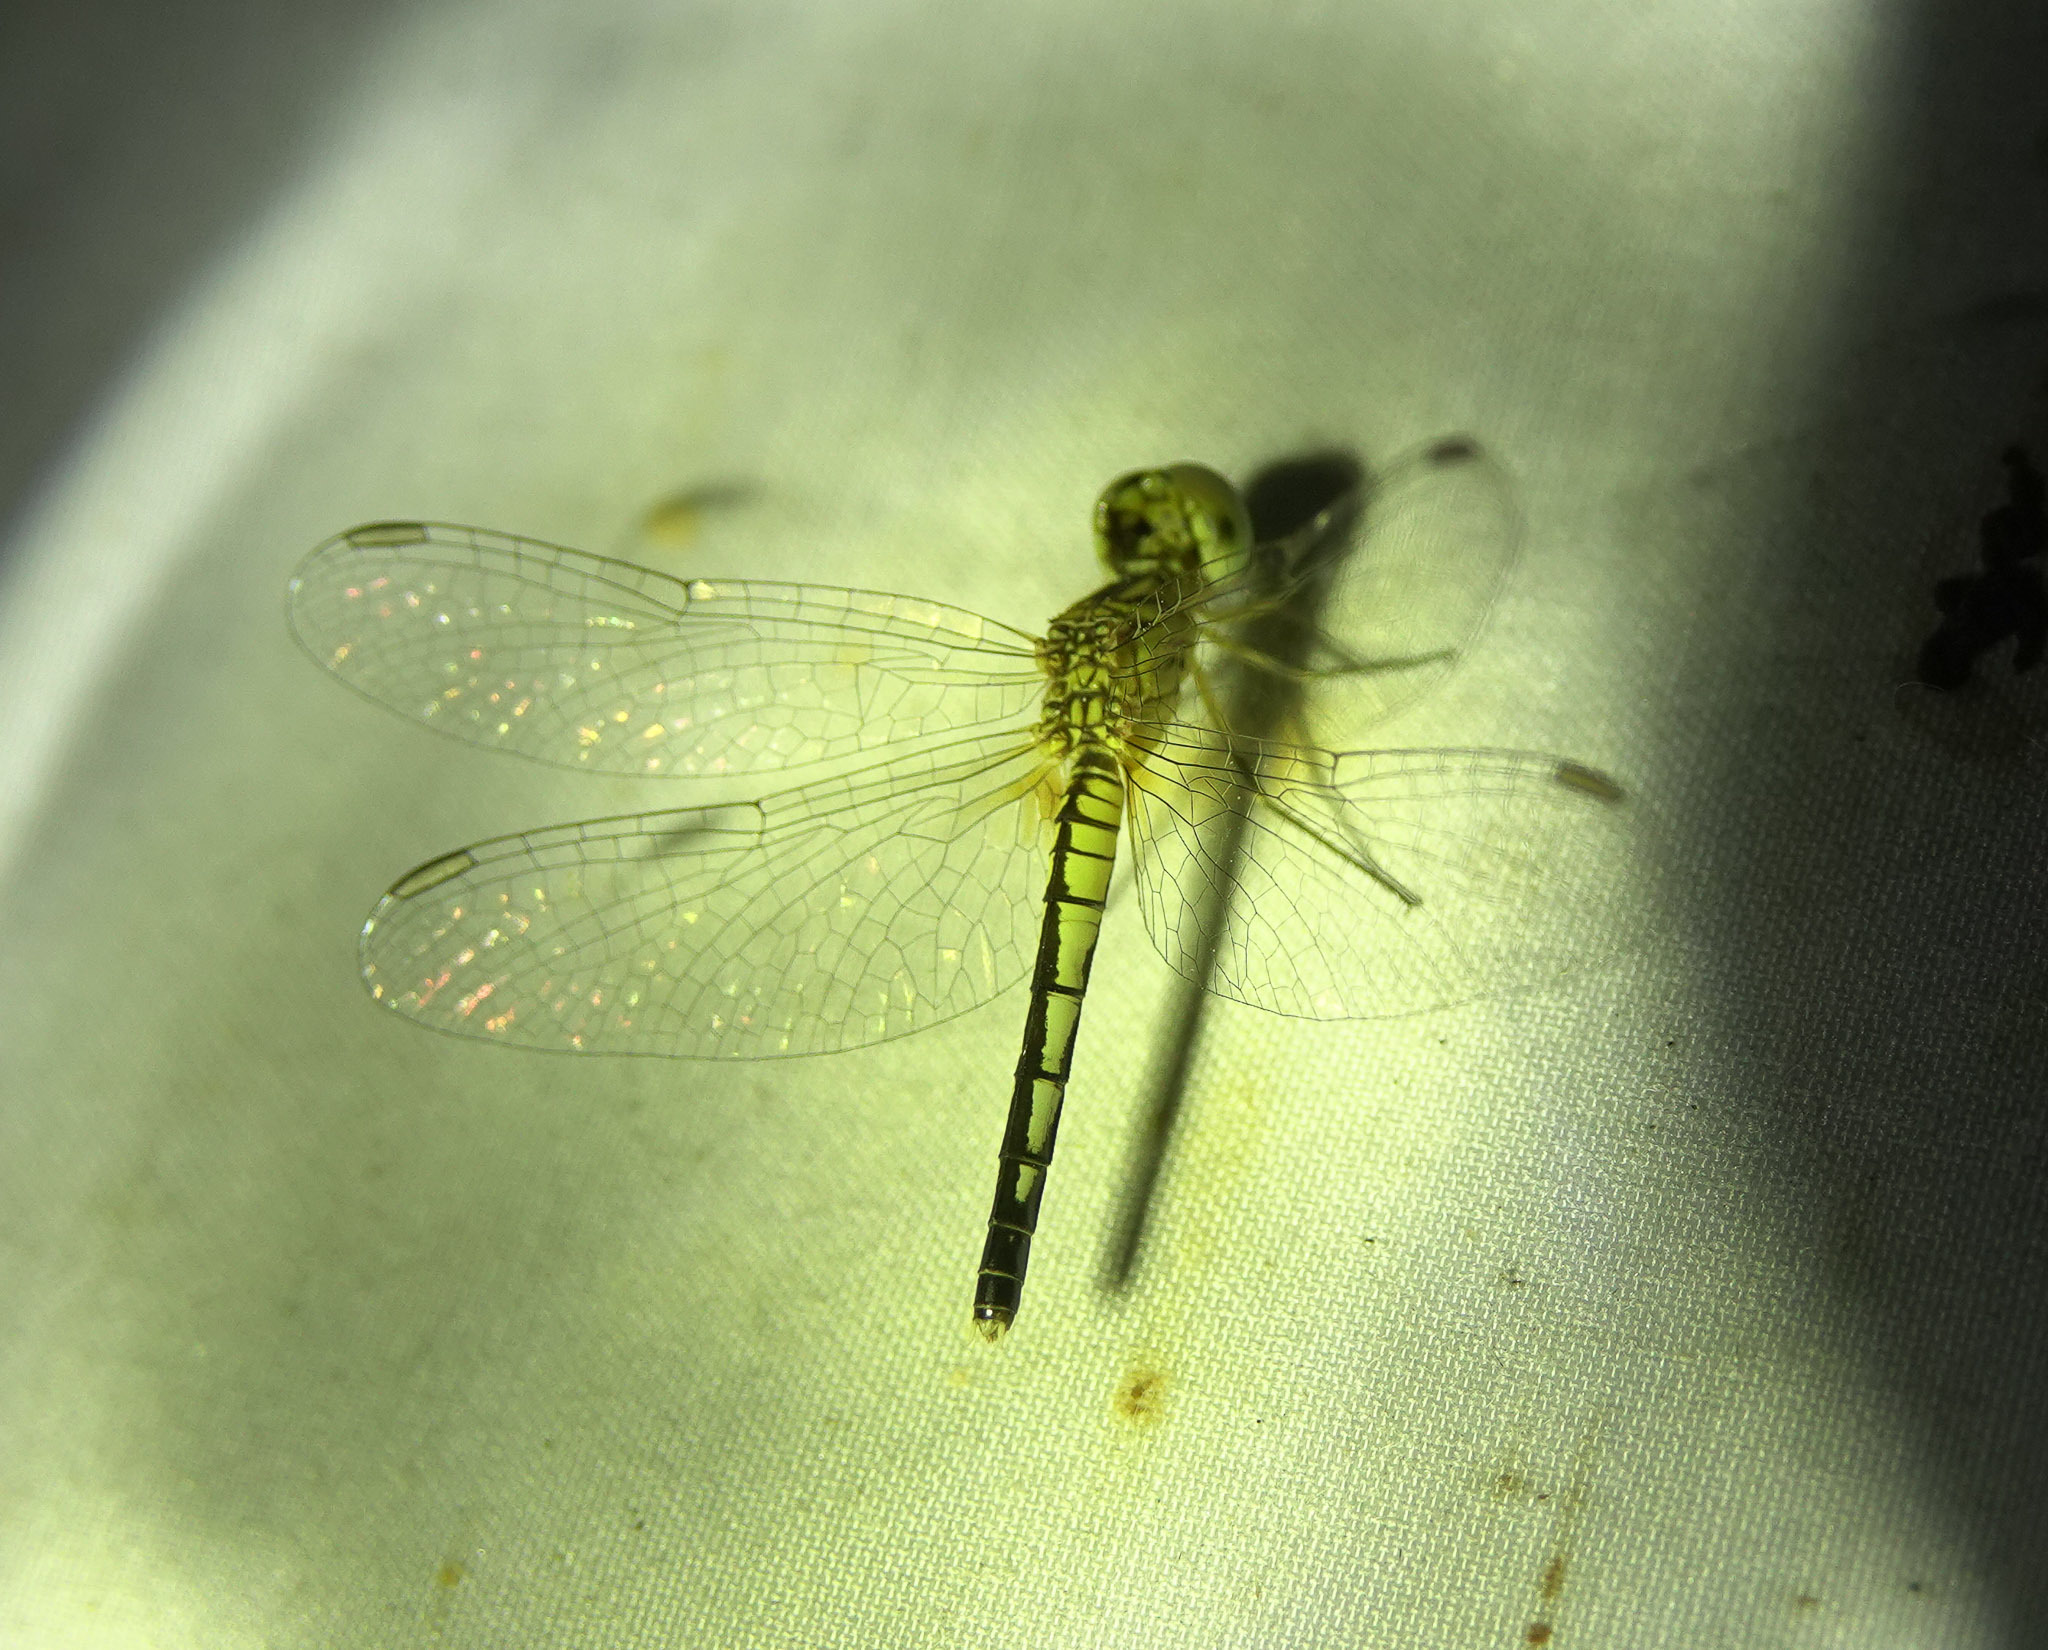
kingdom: Animalia
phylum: Arthropoda
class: Insecta
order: Odonata
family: Libellulidae
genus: Diplacodes
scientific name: Diplacodes nebulosa
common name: Black-tipped percher
